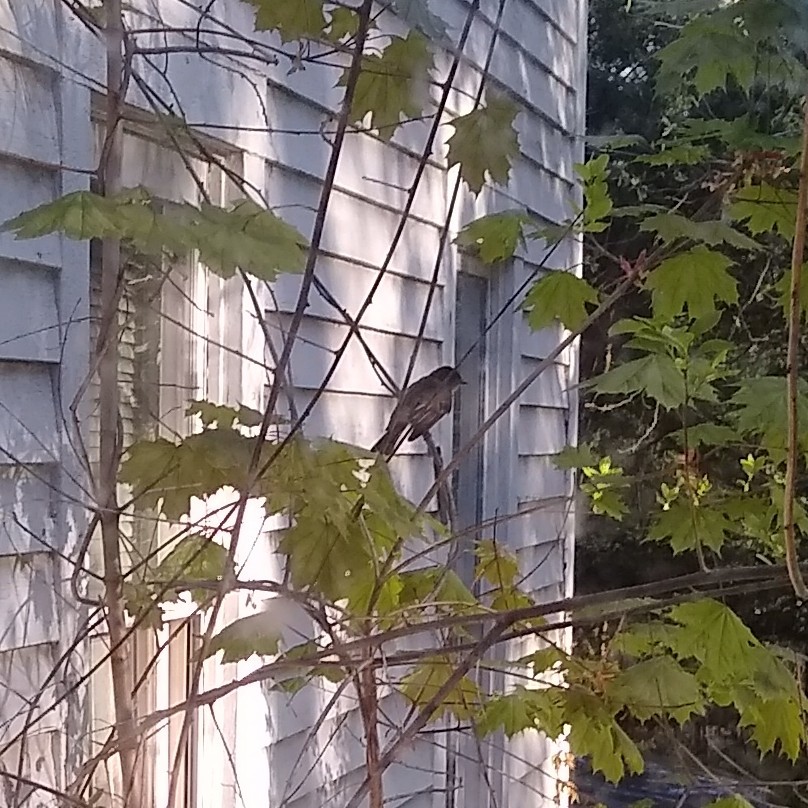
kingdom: Animalia
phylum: Chordata
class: Aves
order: Passeriformes
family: Tyrannidae
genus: Sayornis
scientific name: Sayornis phoebe
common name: Eastern phoebe
